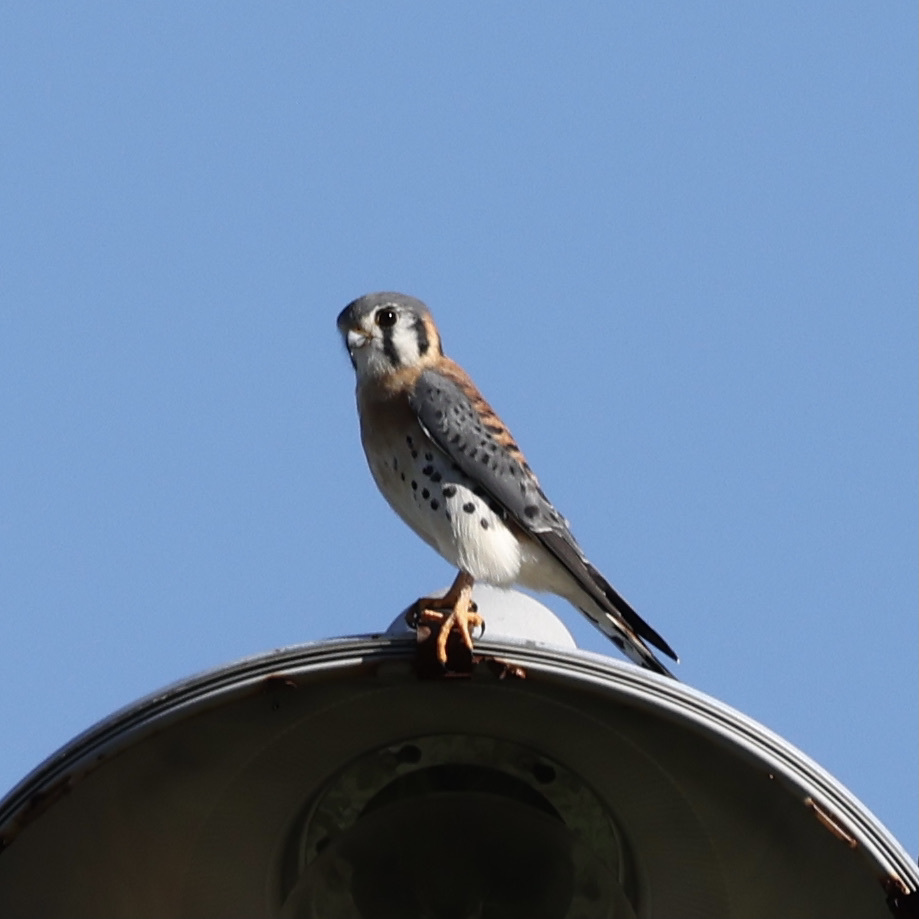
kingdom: Animalia
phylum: Chordata
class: Aves
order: Falconiformes
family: Falconidae
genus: Falco
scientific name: Falco sparverius
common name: American kestrel
